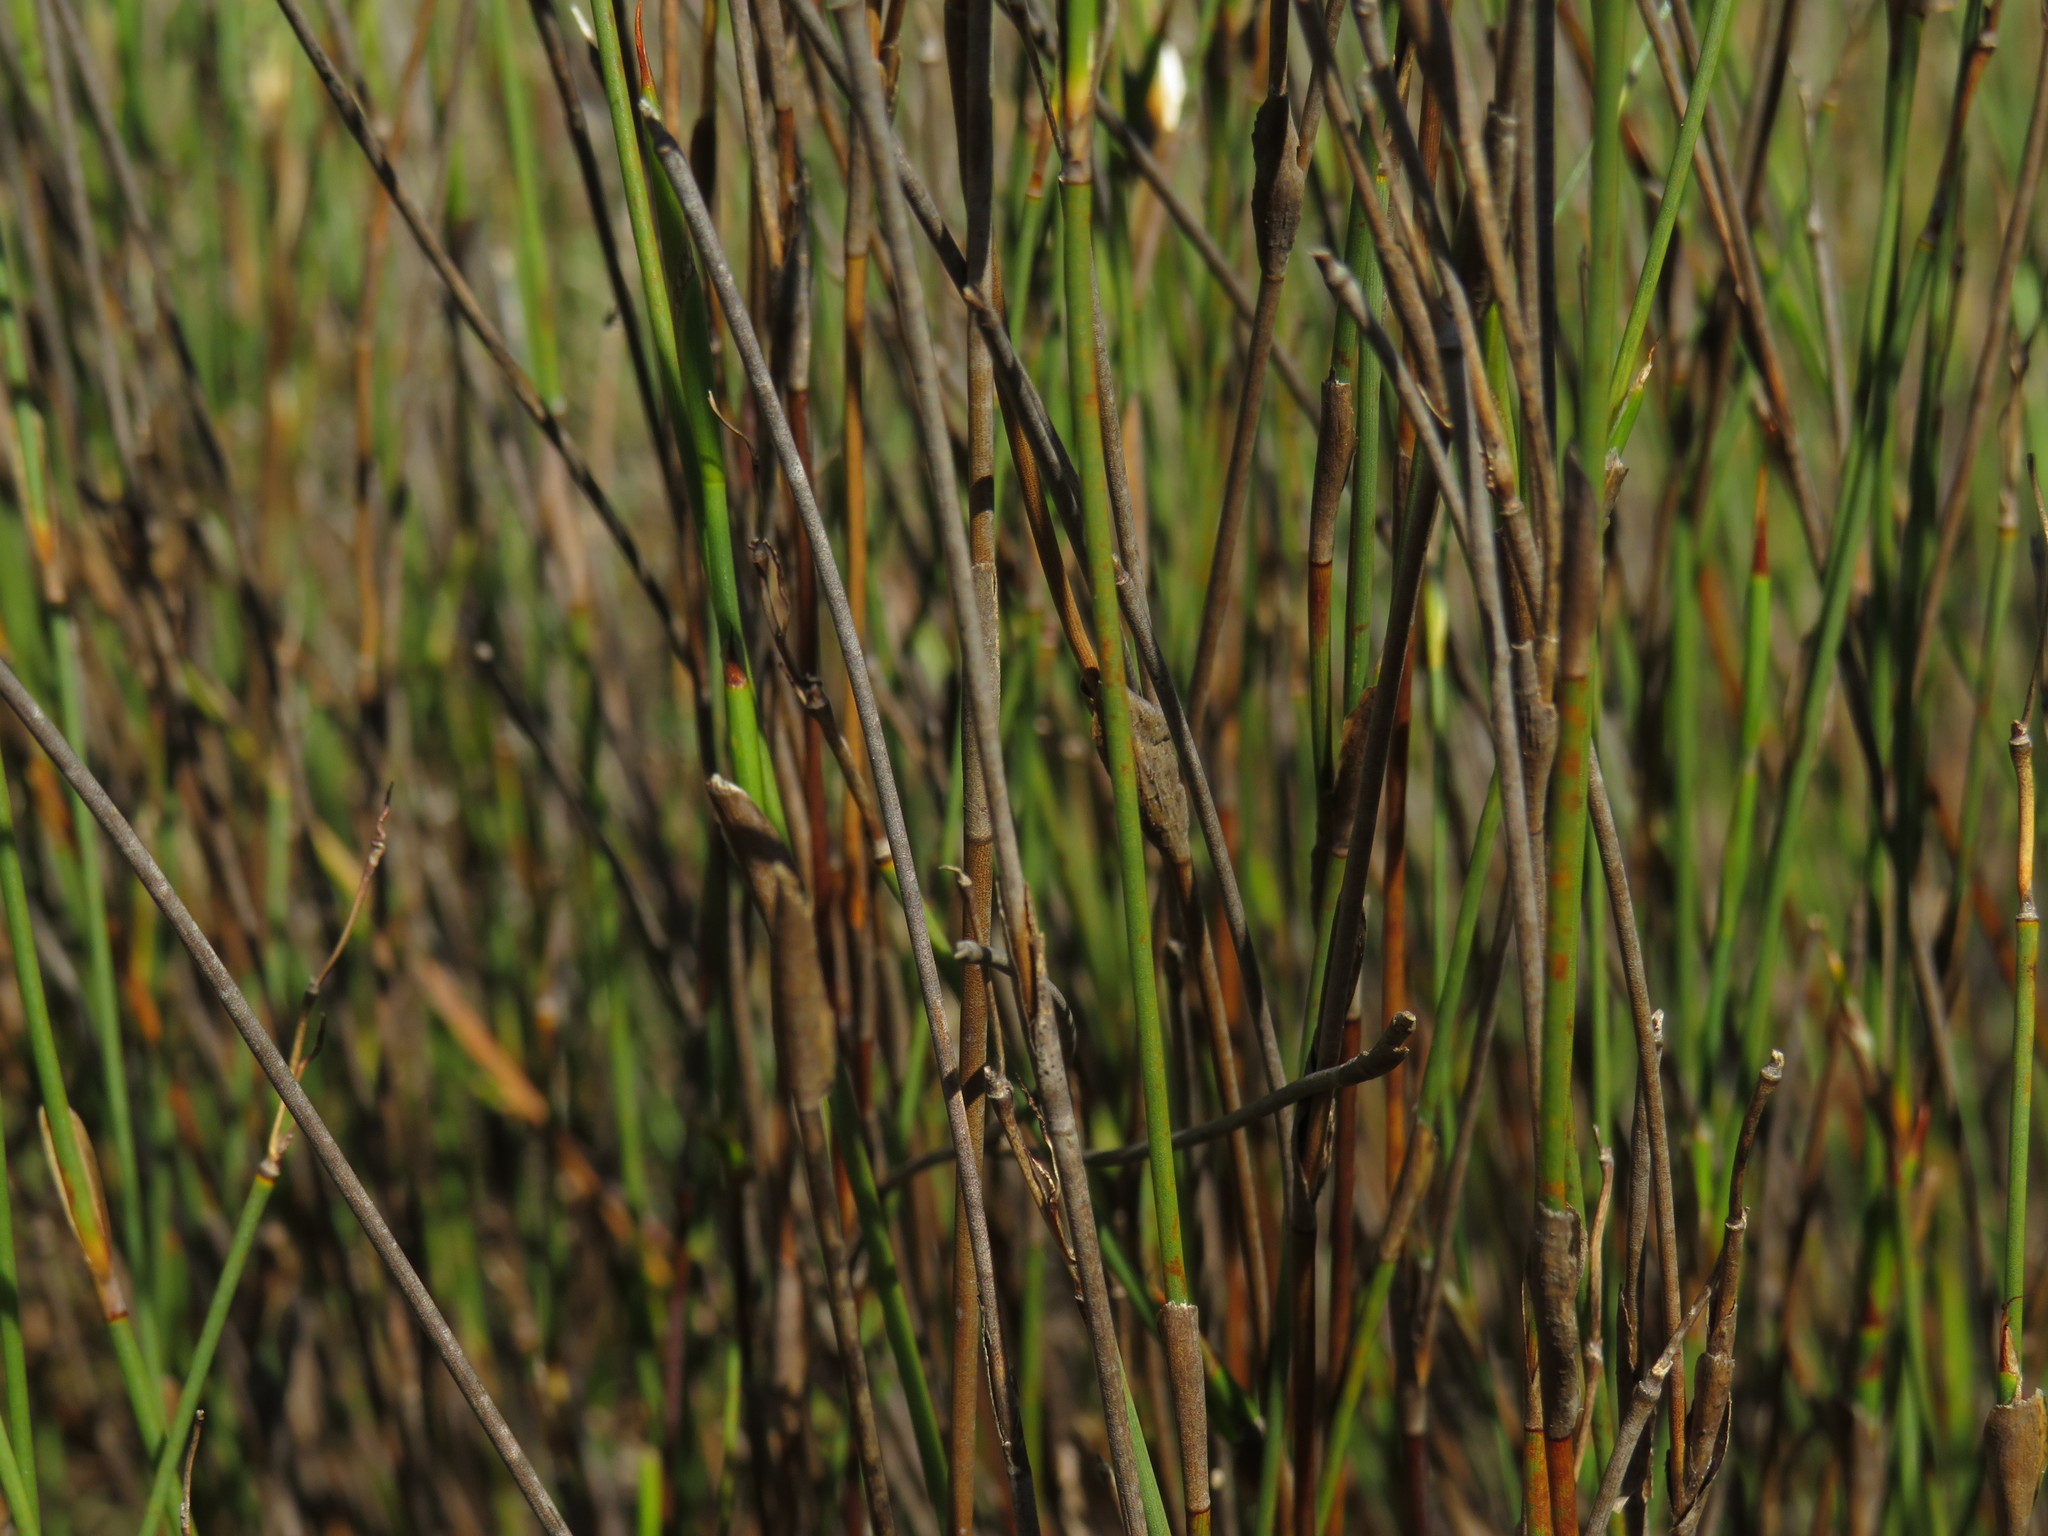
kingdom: Plantae
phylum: Tracheophyta
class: Liliopsida
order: Poales
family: Restionaceae
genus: Willdenowia
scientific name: Willdenowia incurvata
